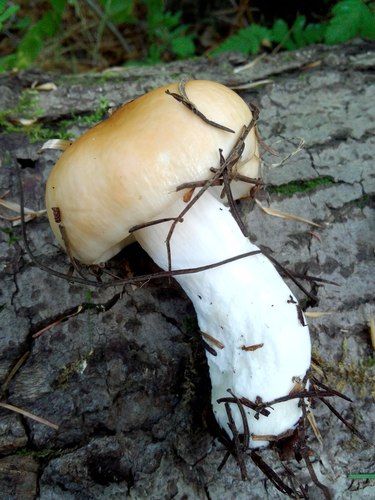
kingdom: Fungi
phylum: Basidiomycota
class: Agaricomycetes
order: Russulales
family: Russulaceae
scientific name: Russulaceae
